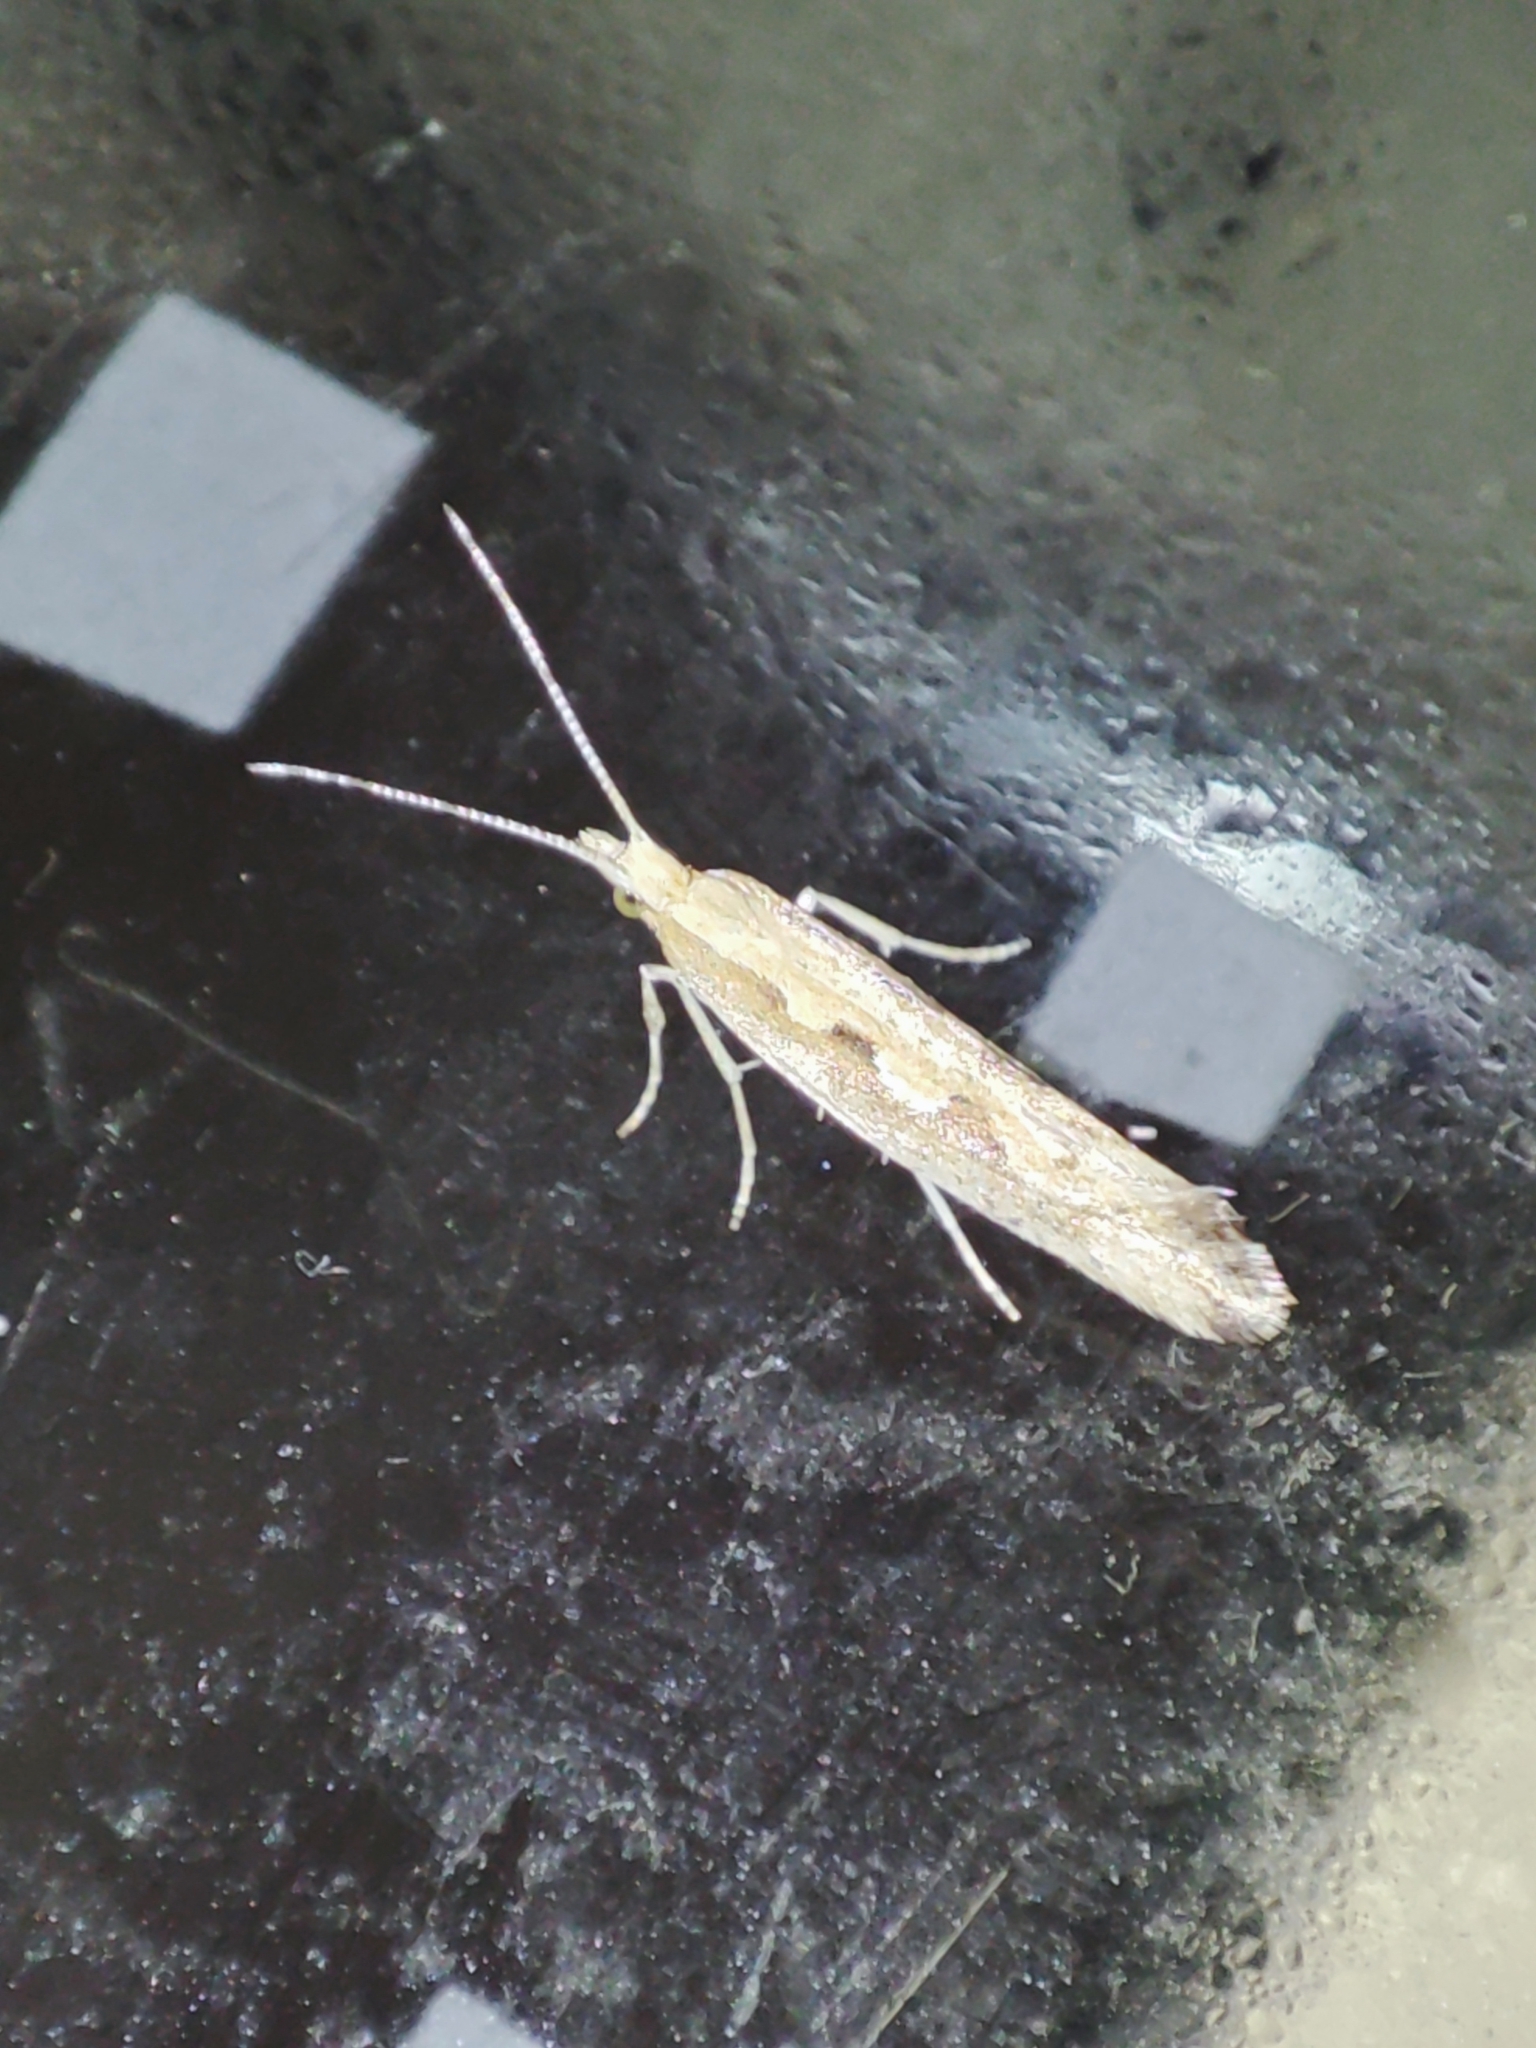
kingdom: Animalia
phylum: Arthropoda
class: Insecta
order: Lepidoptera
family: Plutellidae
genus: Plutella
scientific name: Plutella xylostella
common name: Diamond-back moth
